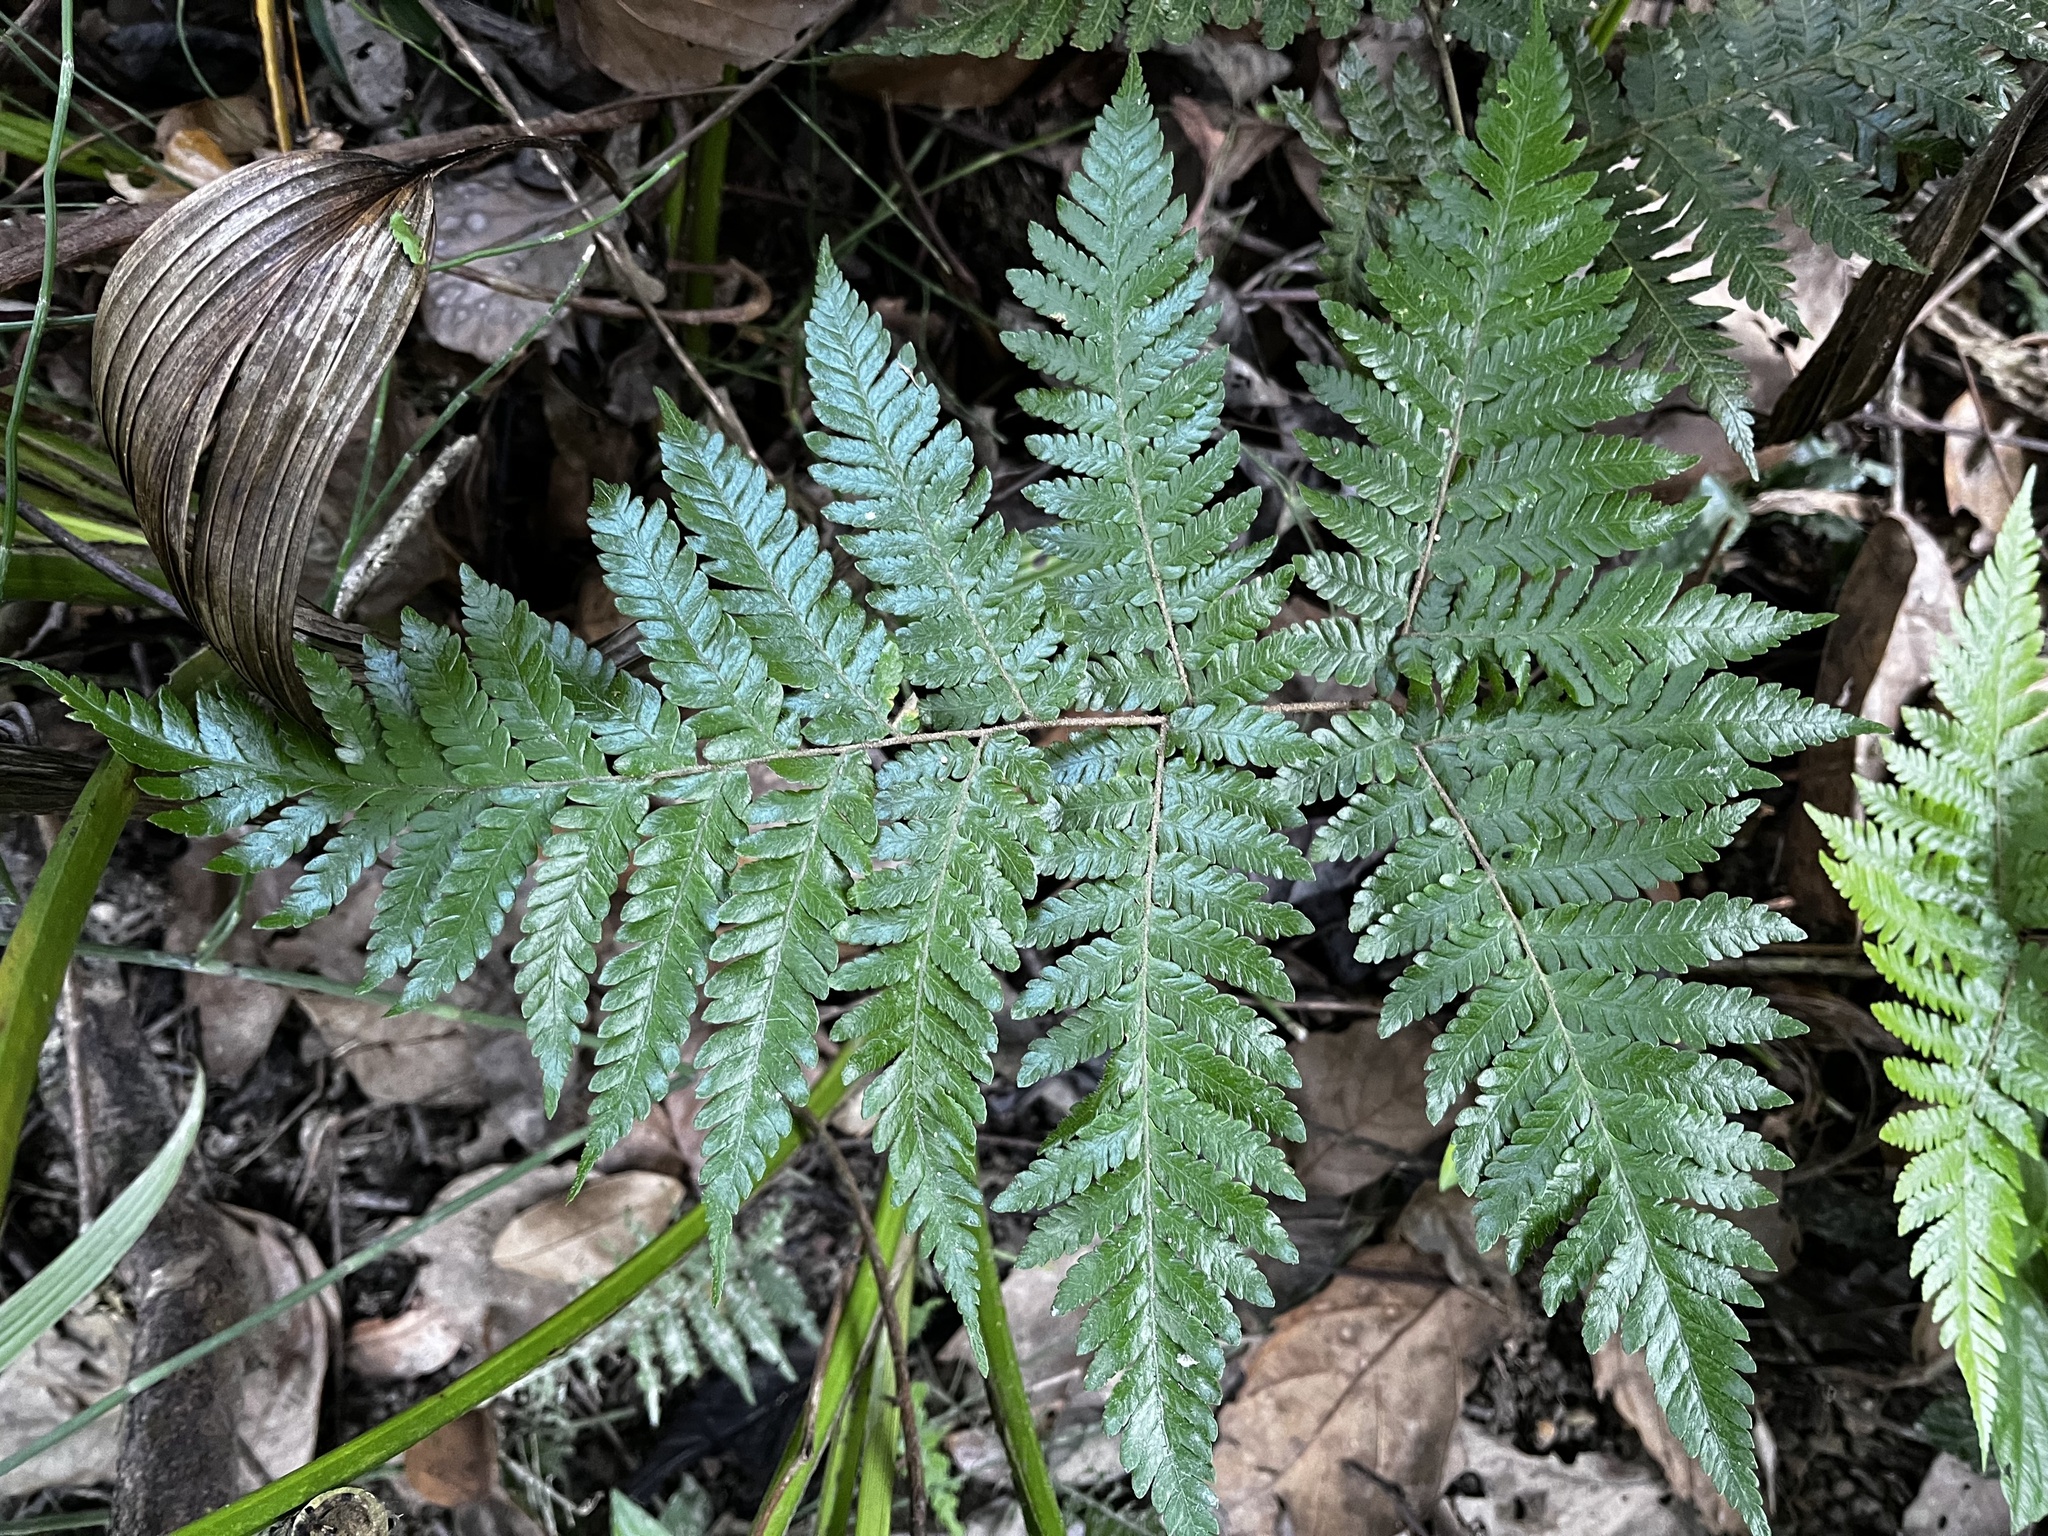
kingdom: Plantae
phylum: Tracheophyta
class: Polypodiopsida
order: Polypodiales
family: Dryopteridaceae
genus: Ctenitis
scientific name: Ctenitis subglandulosa
